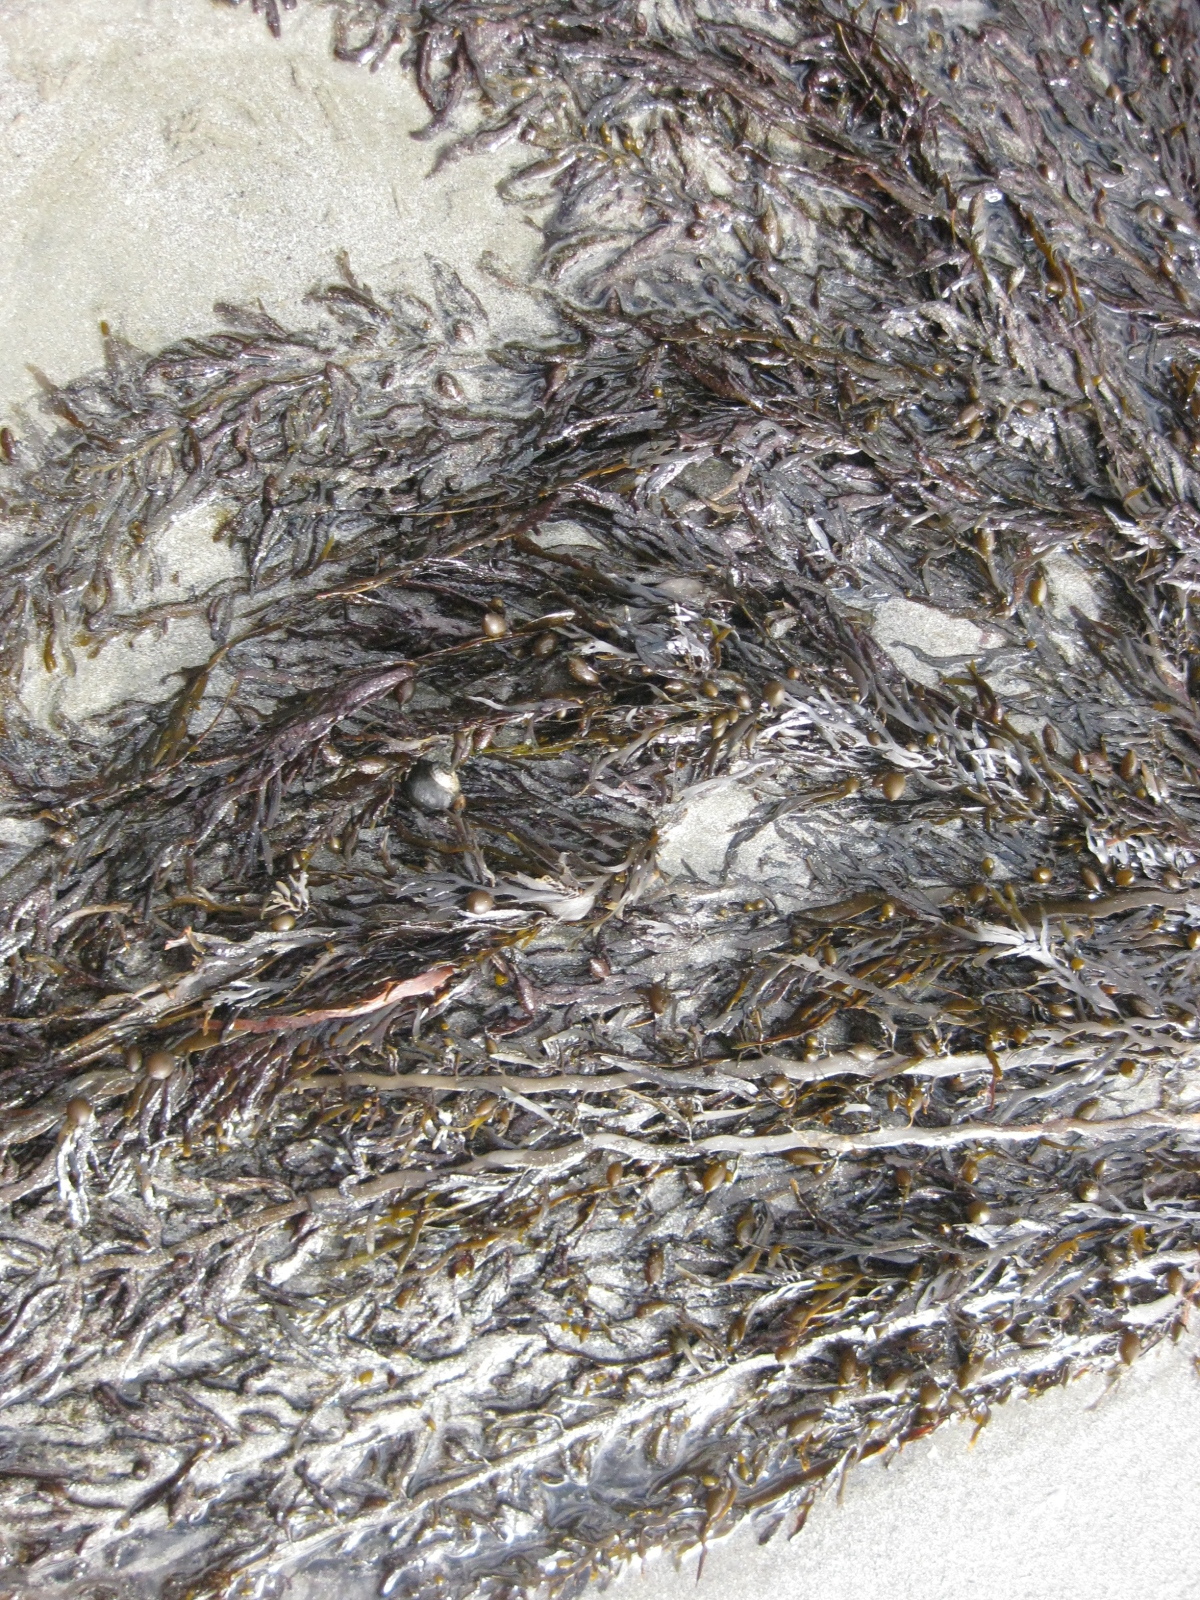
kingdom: Chromista
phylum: Ochrophyta
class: Phaeophyceae
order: Fucales
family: Sargassaceae
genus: Carpophyllum
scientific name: Carpophyllum maschalocarpum
